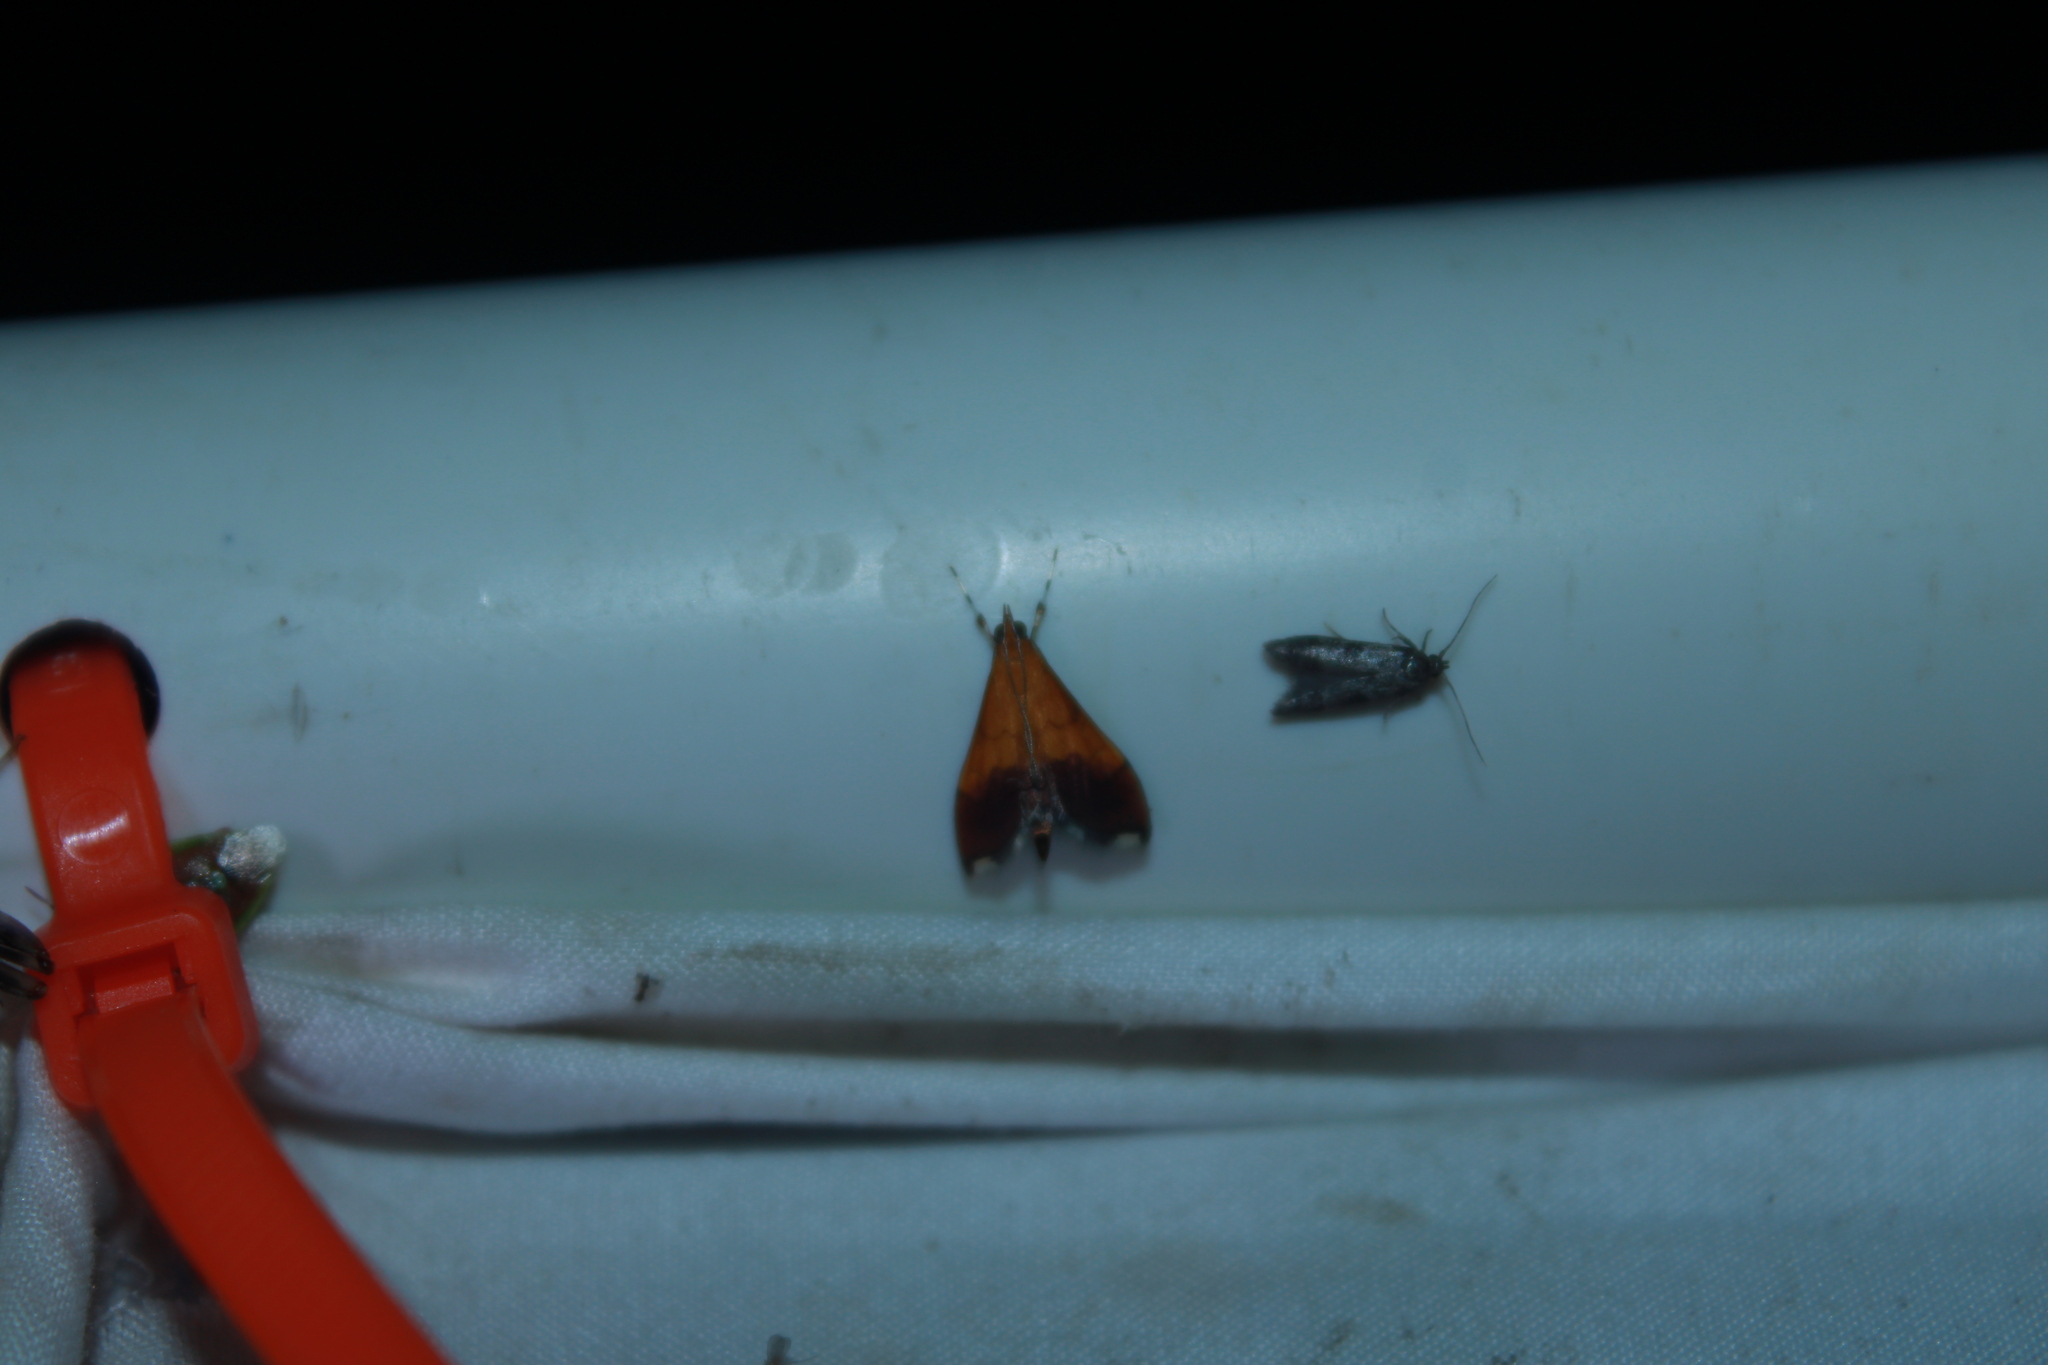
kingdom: Animalia
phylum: Arthropoda
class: Insecta
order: Lepidoptera
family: Crambidae
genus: Pyrausta
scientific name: Pyrausta bicoloralis
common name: Bicolored pyrausta moth
